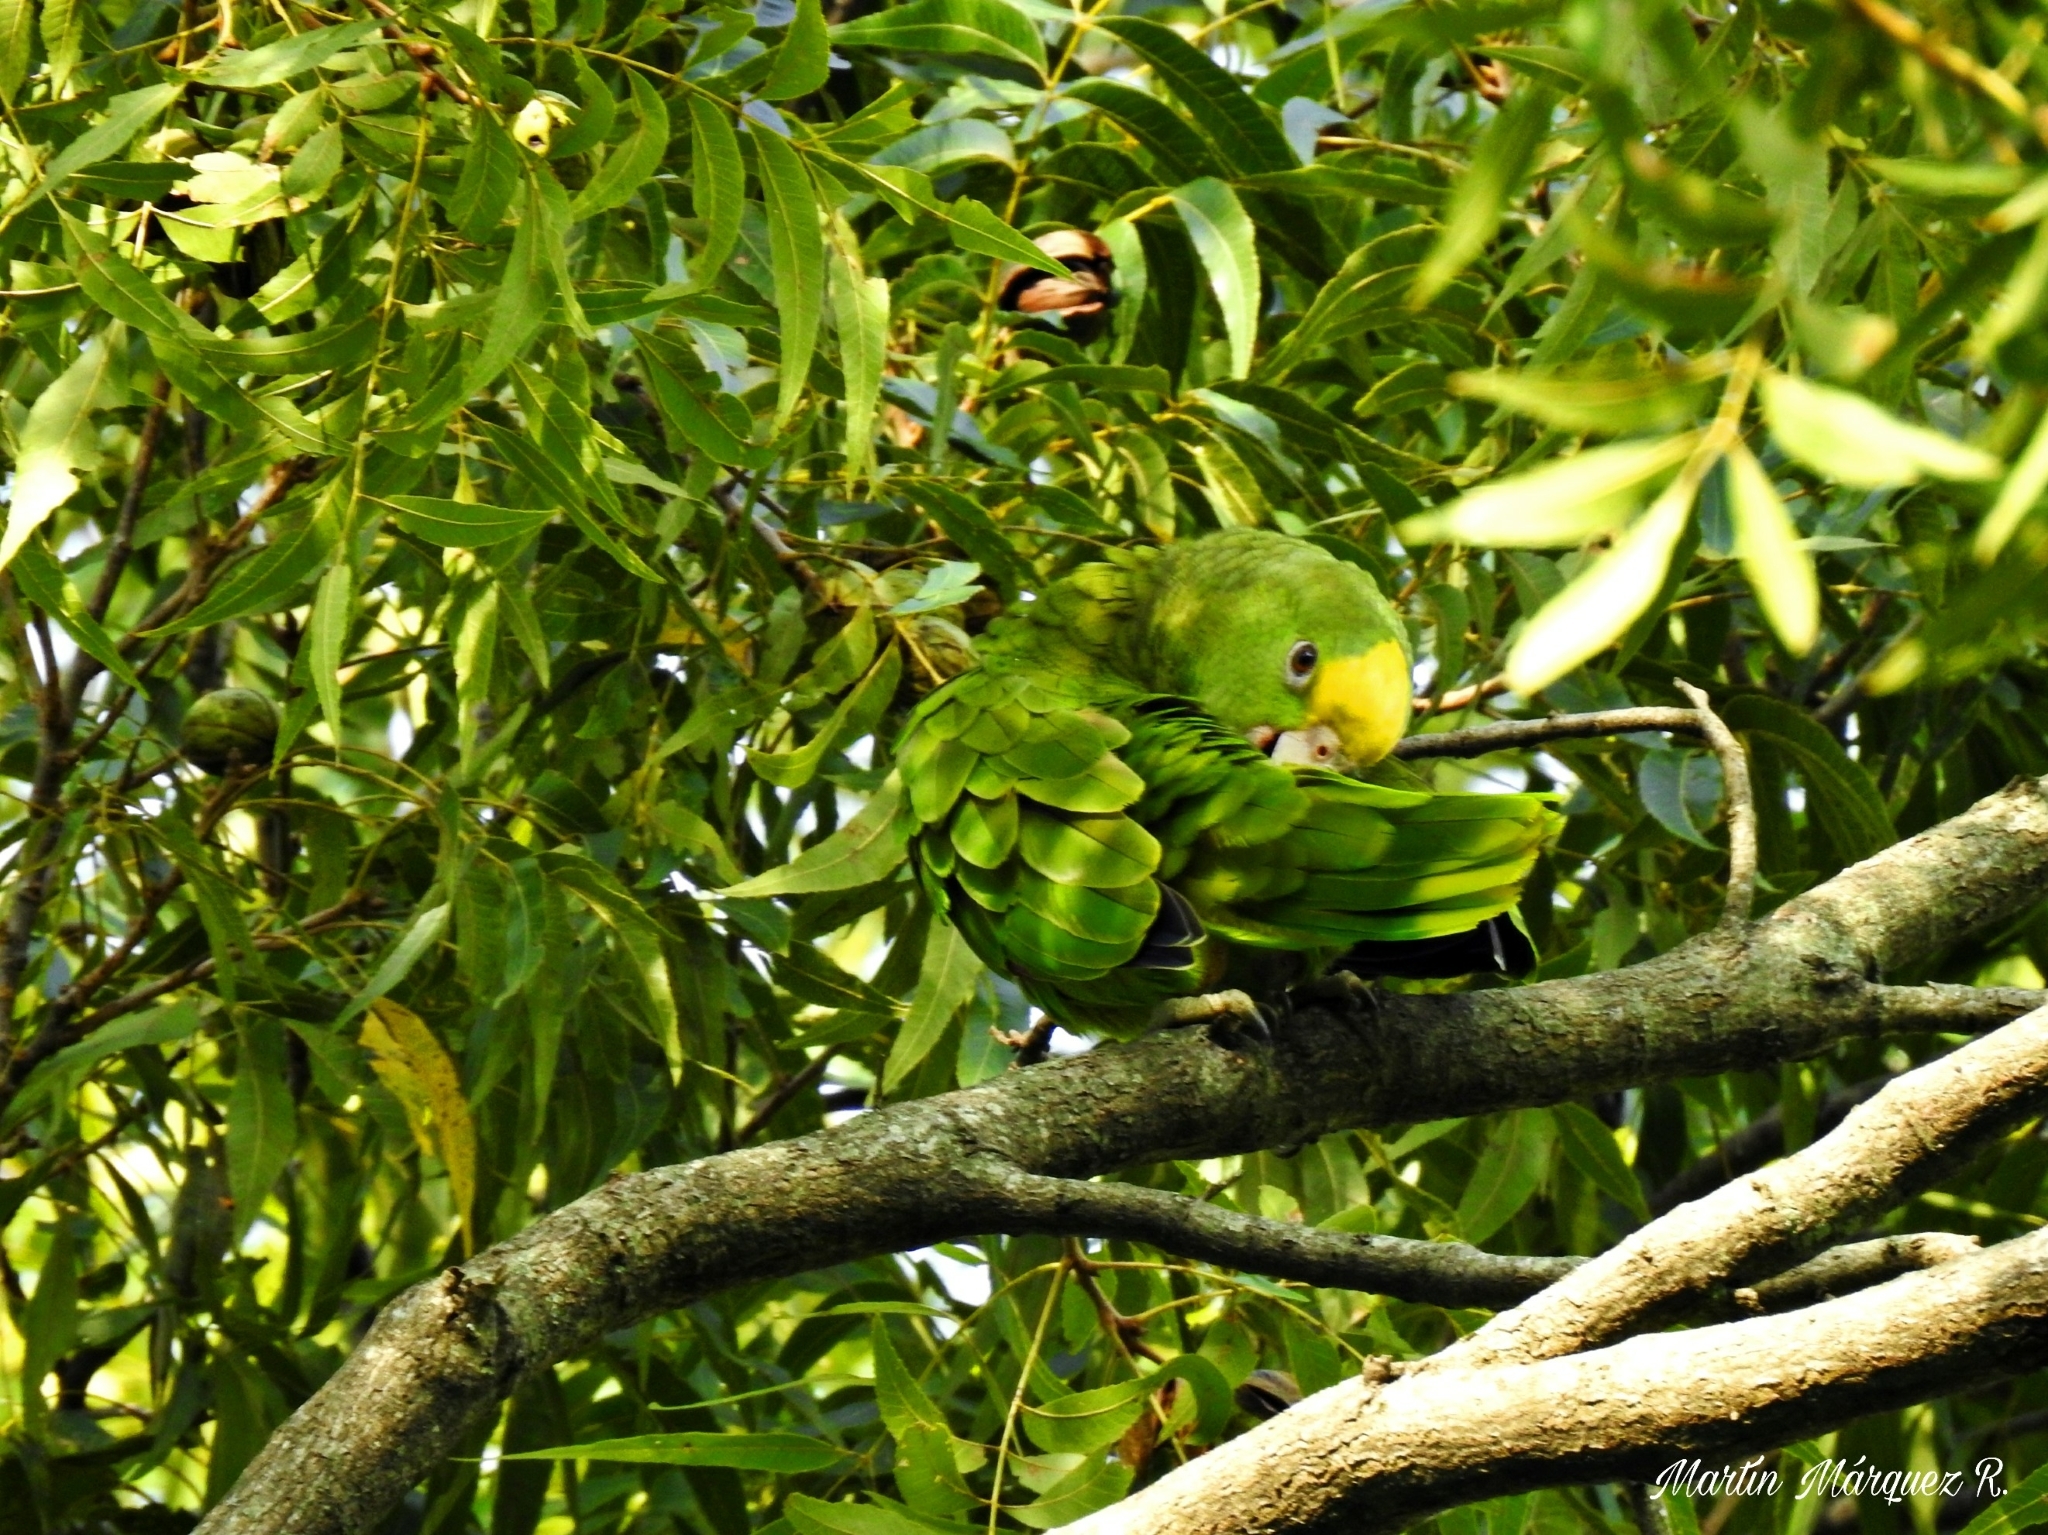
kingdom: Animalia
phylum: Chordata
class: Aves
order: Psittaciformes
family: Psittacidae
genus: Amazona
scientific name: Amazona oratrix
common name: Yellow-headed amazon
